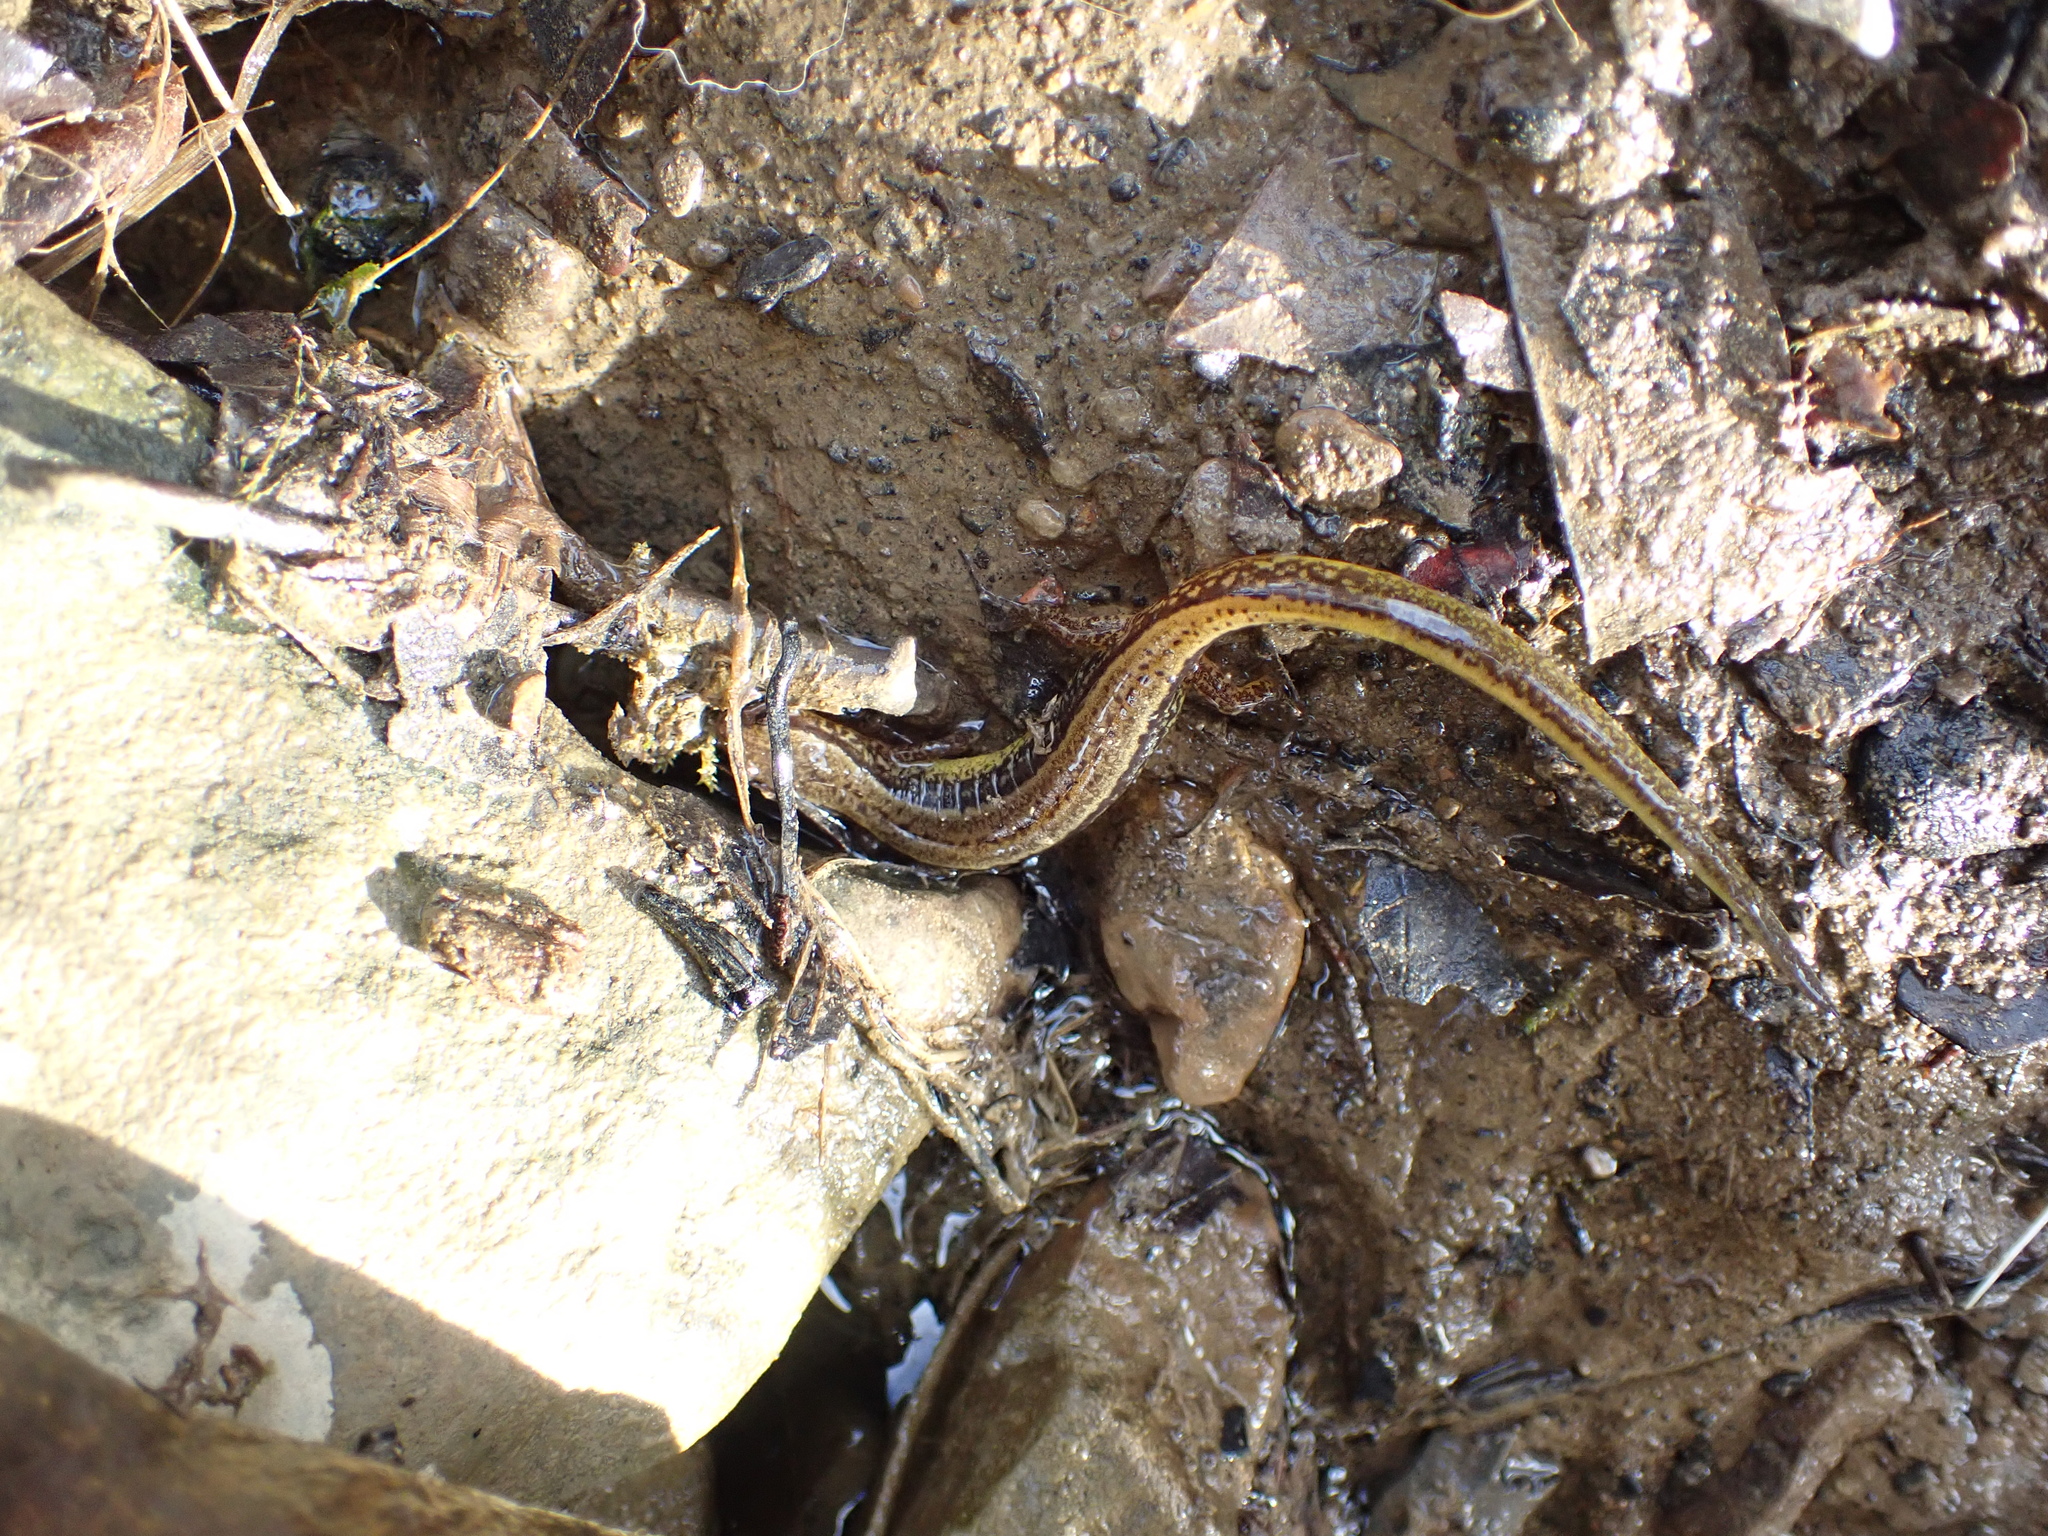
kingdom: Animalia
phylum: Chordata
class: Amphibia
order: Caudata
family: Plethodontidae
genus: Eurycea
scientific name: Eurycea cirrigera
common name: Southern two-lined salamander
